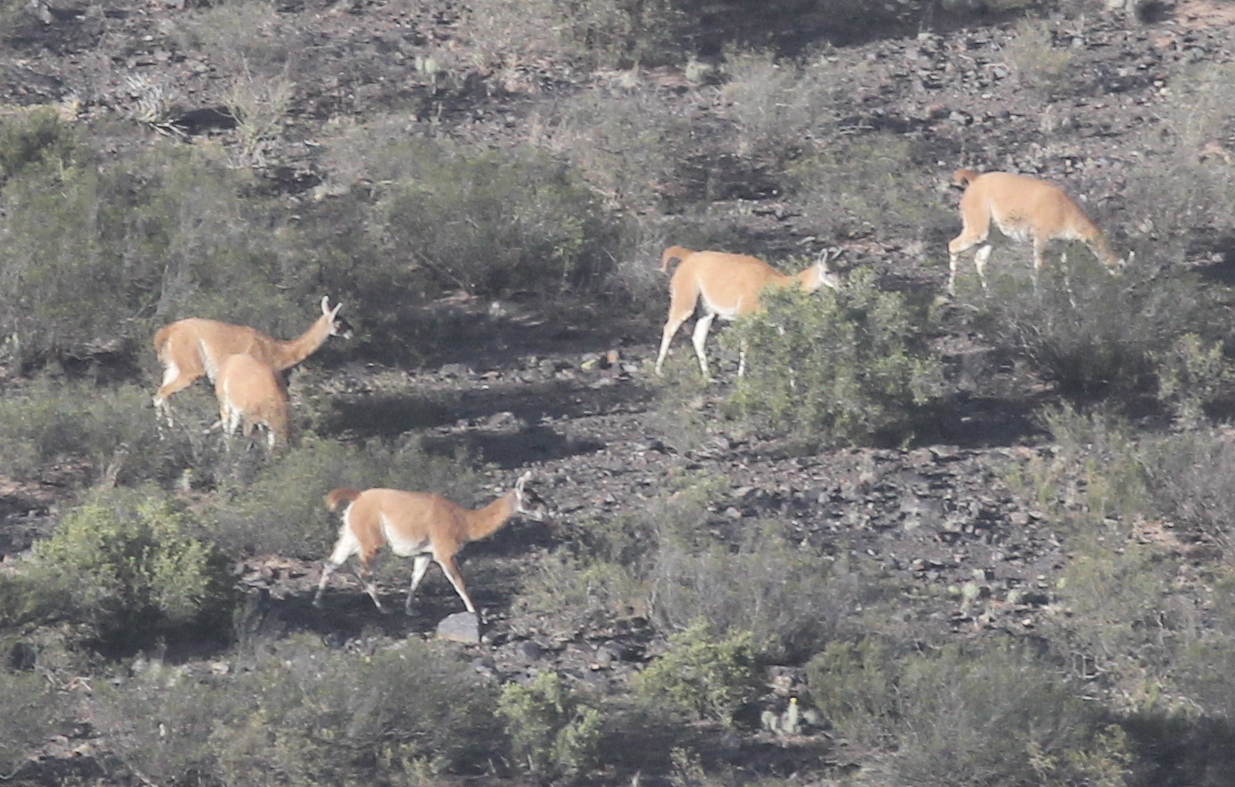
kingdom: Animalia
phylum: Chordata
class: Mammalia
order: Artiodactyla
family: Camelidae
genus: Lama
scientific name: Lama glama
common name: Llama
